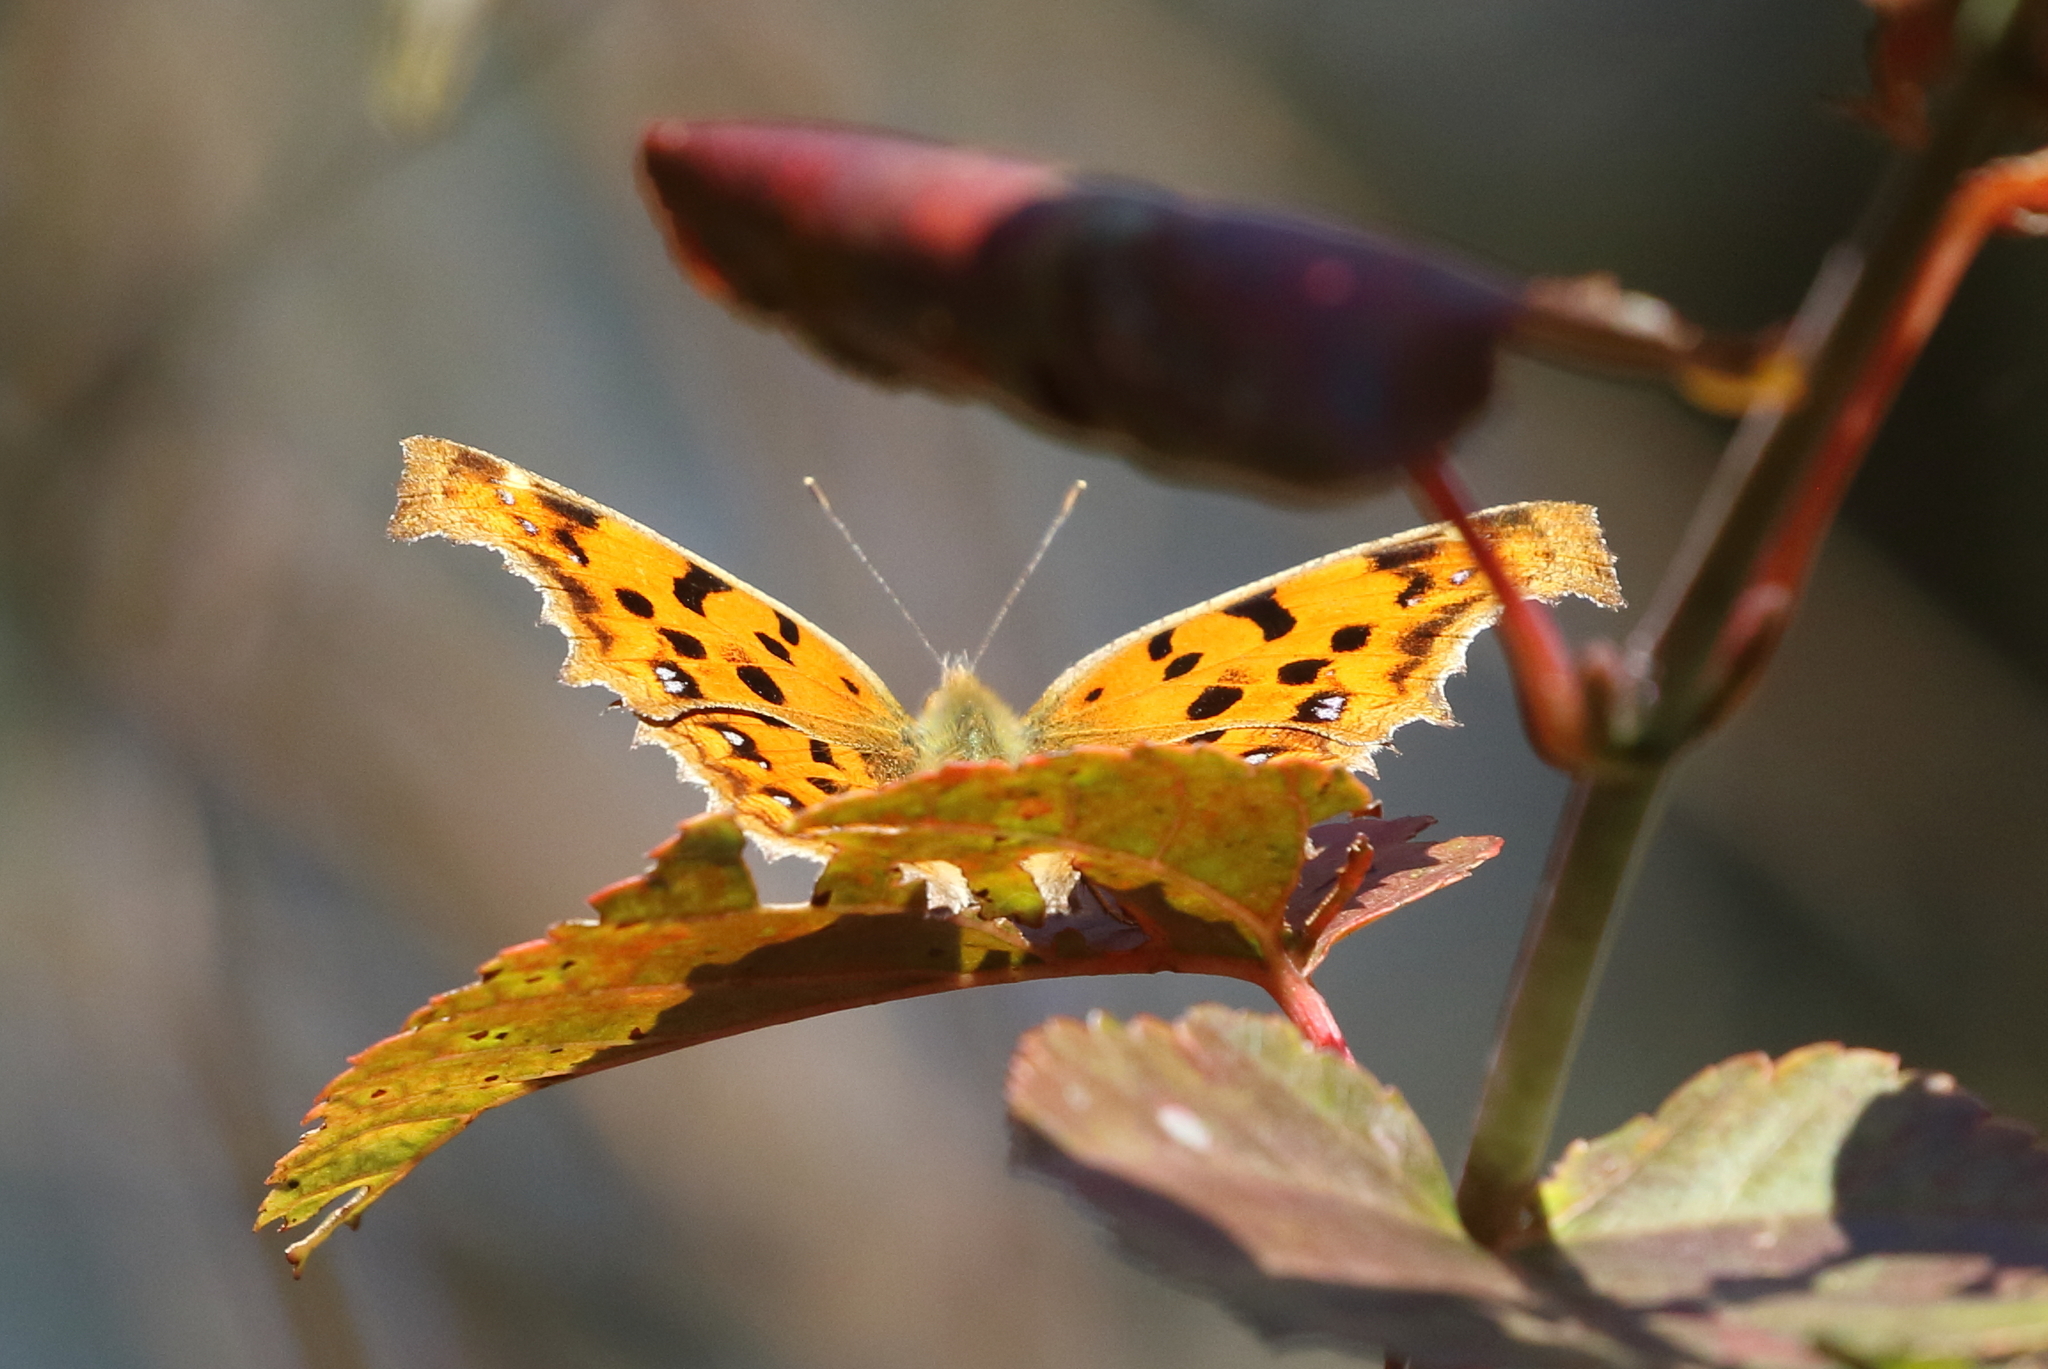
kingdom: Animalia
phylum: Arthropoda
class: Insecta
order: Lepidoptera
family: Nymphalidae
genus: Polygonia
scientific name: Polygonia c-aureum
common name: Asian comma
